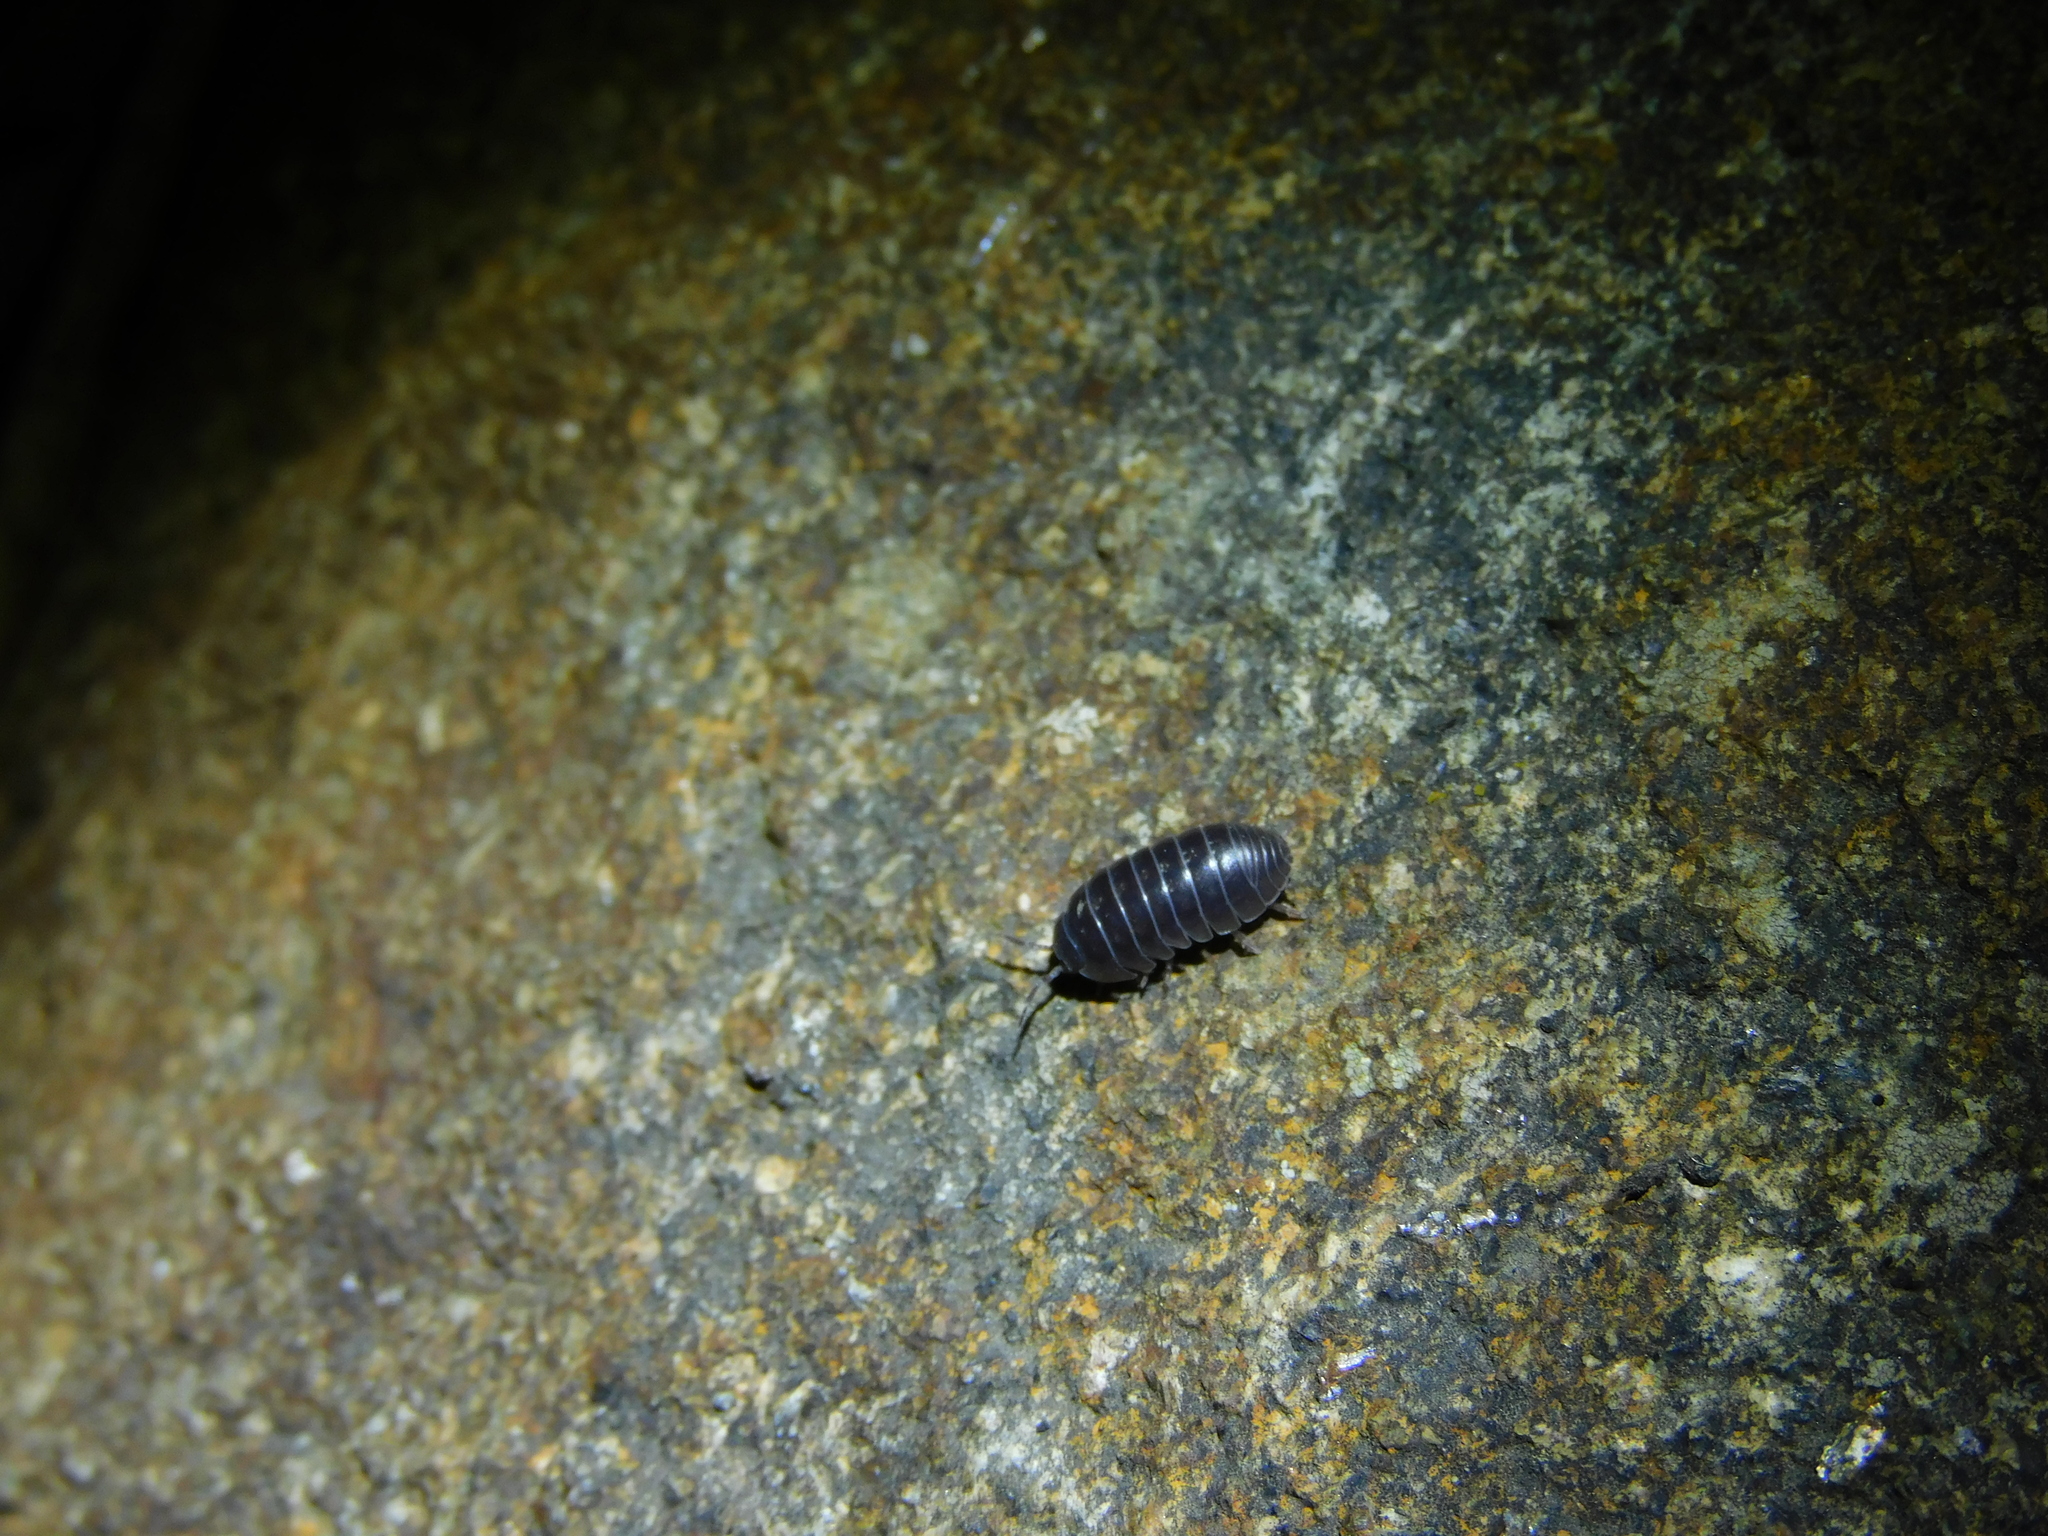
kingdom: Animalia
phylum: Arthropoda
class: Malacostraca
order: Isopoda
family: Armadillidiidae
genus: Armadillidium
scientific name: Armadillidium vulgare
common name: Common pill woodlouse
